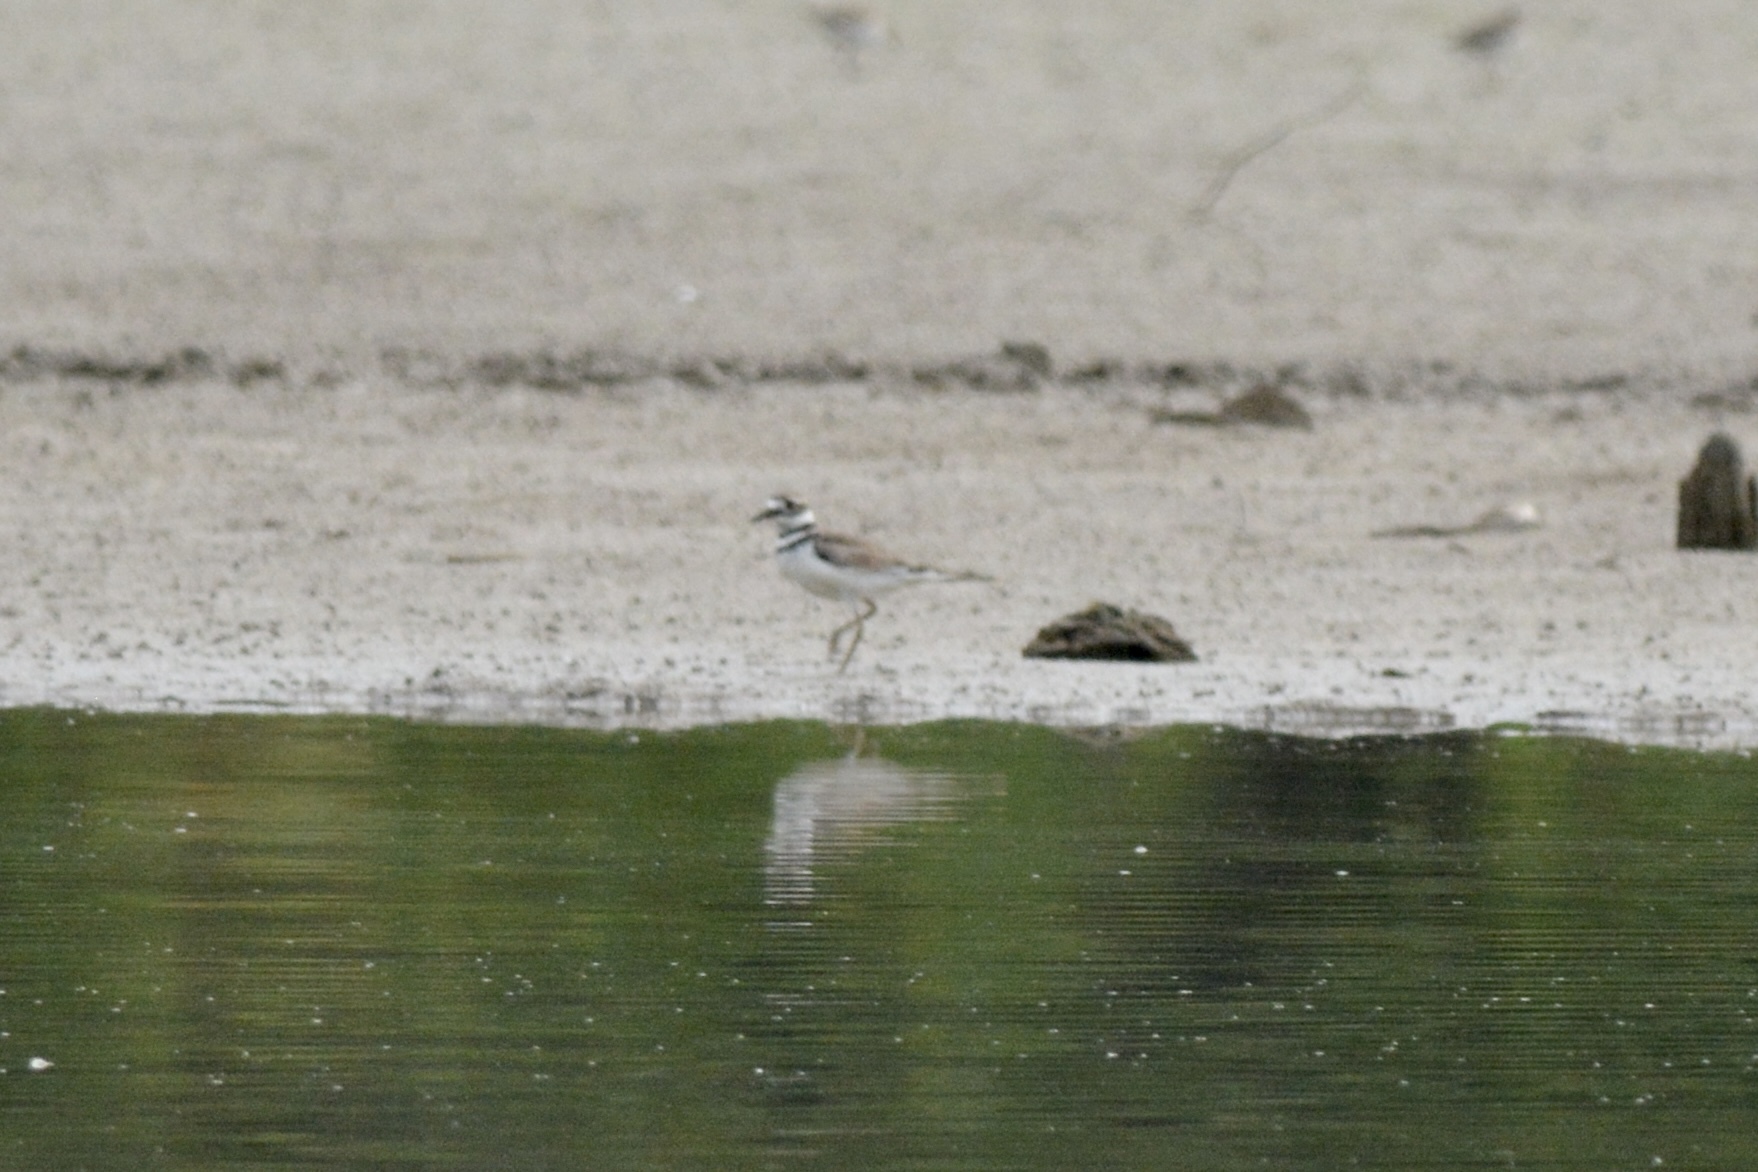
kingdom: Animalia
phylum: Chordata
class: Aves
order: Charadriiformes
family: Charadriidae
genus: Charadrius
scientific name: Charadrius vociferus
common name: Killdeer
